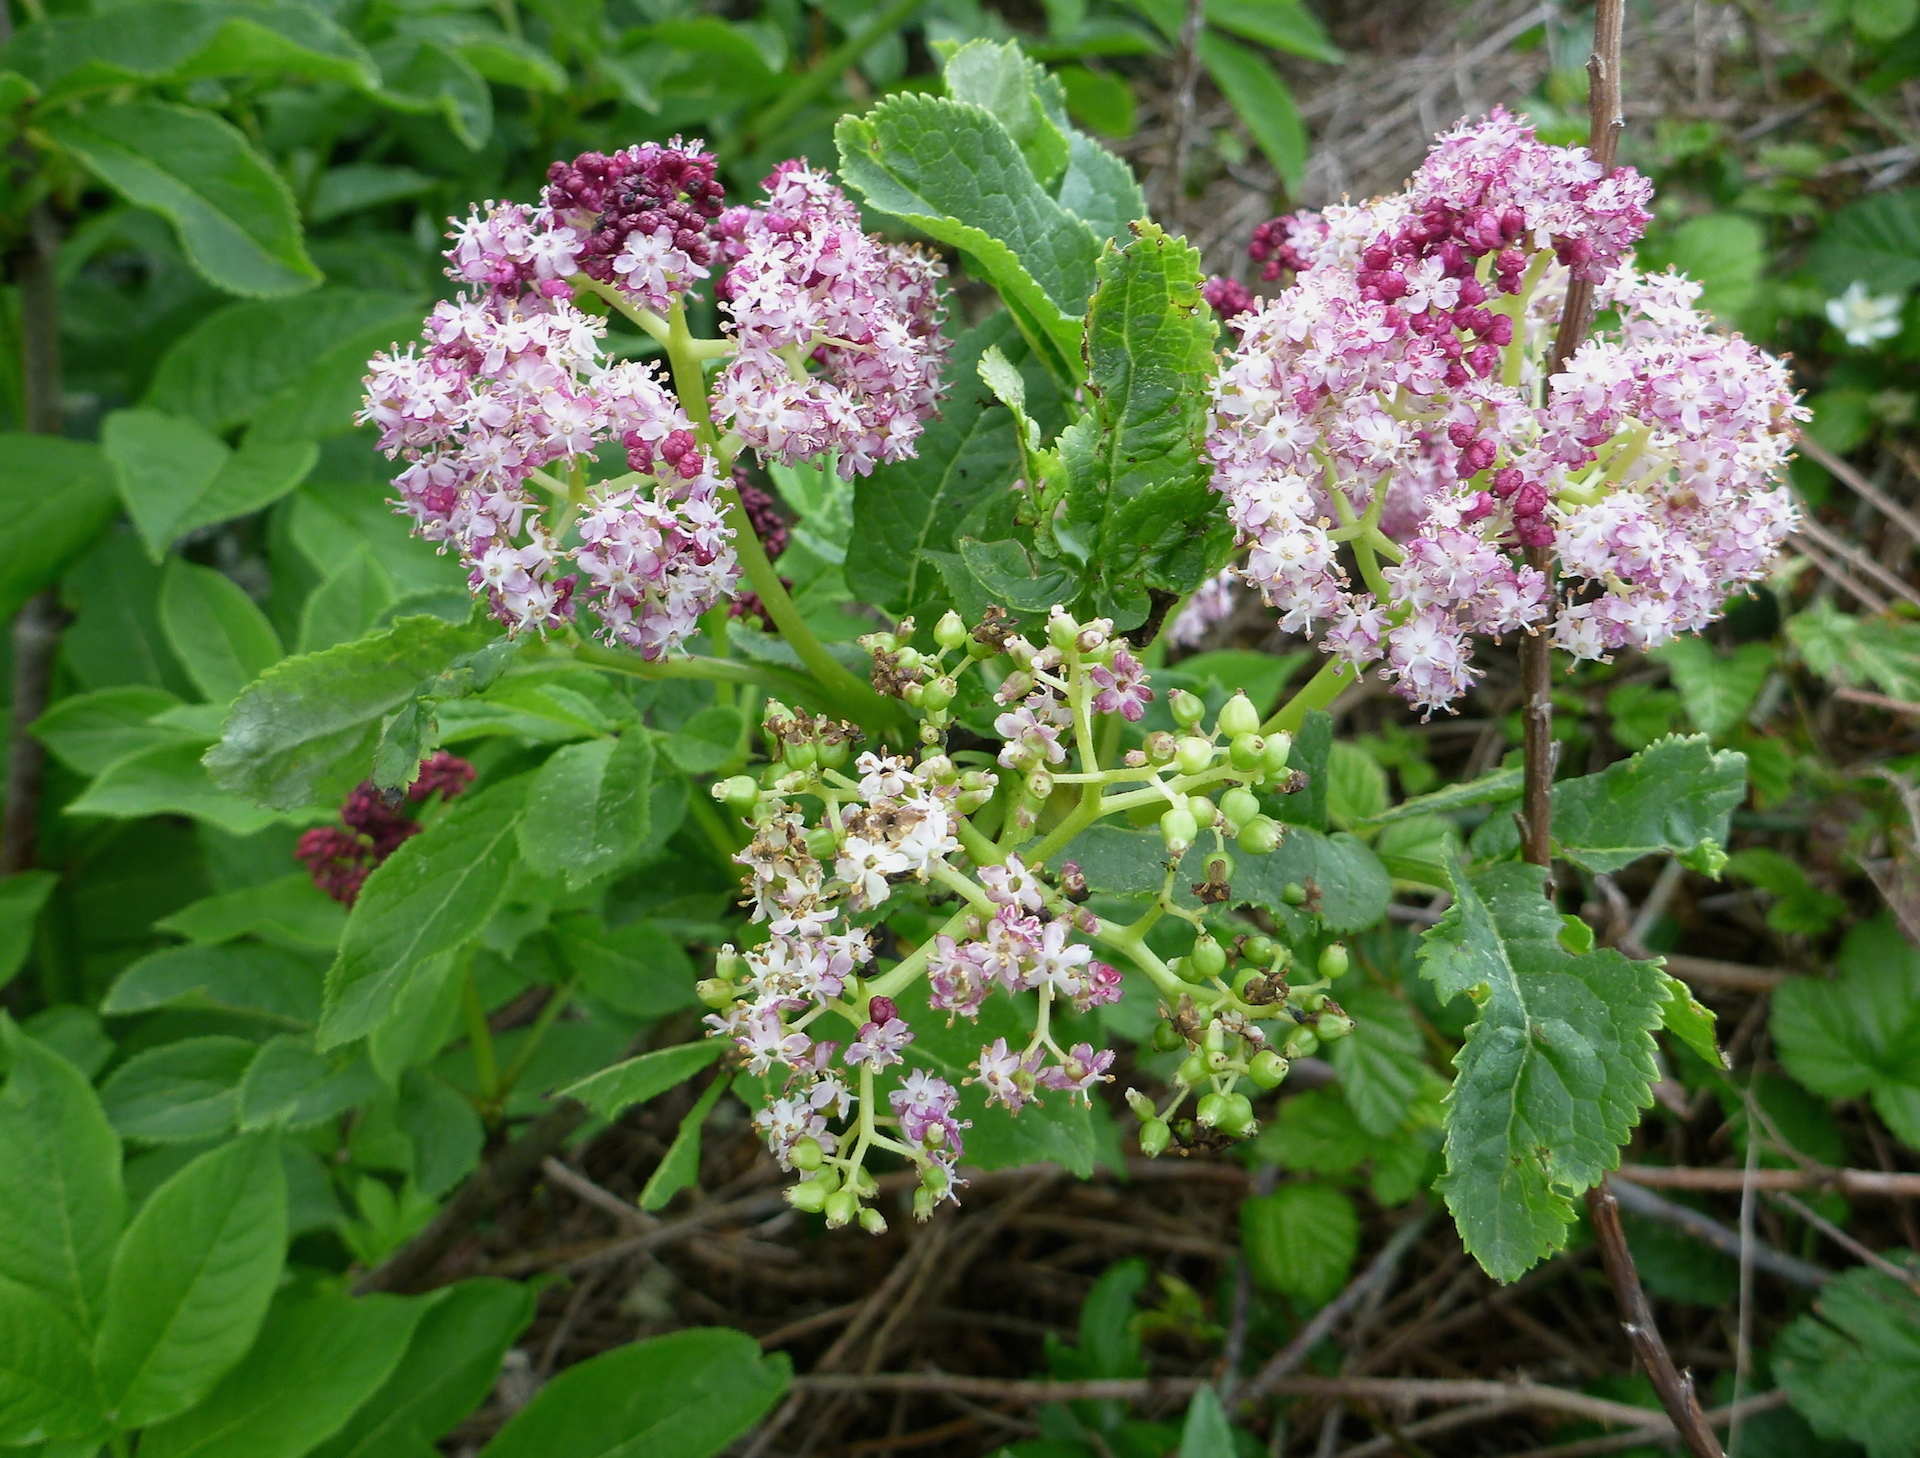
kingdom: Plantae
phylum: Tracheophyta
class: Magnoliopsida
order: Dipsacales
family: Viburnaceae
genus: Sambucus
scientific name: Sambucus racemosa
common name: Red-berried elder
